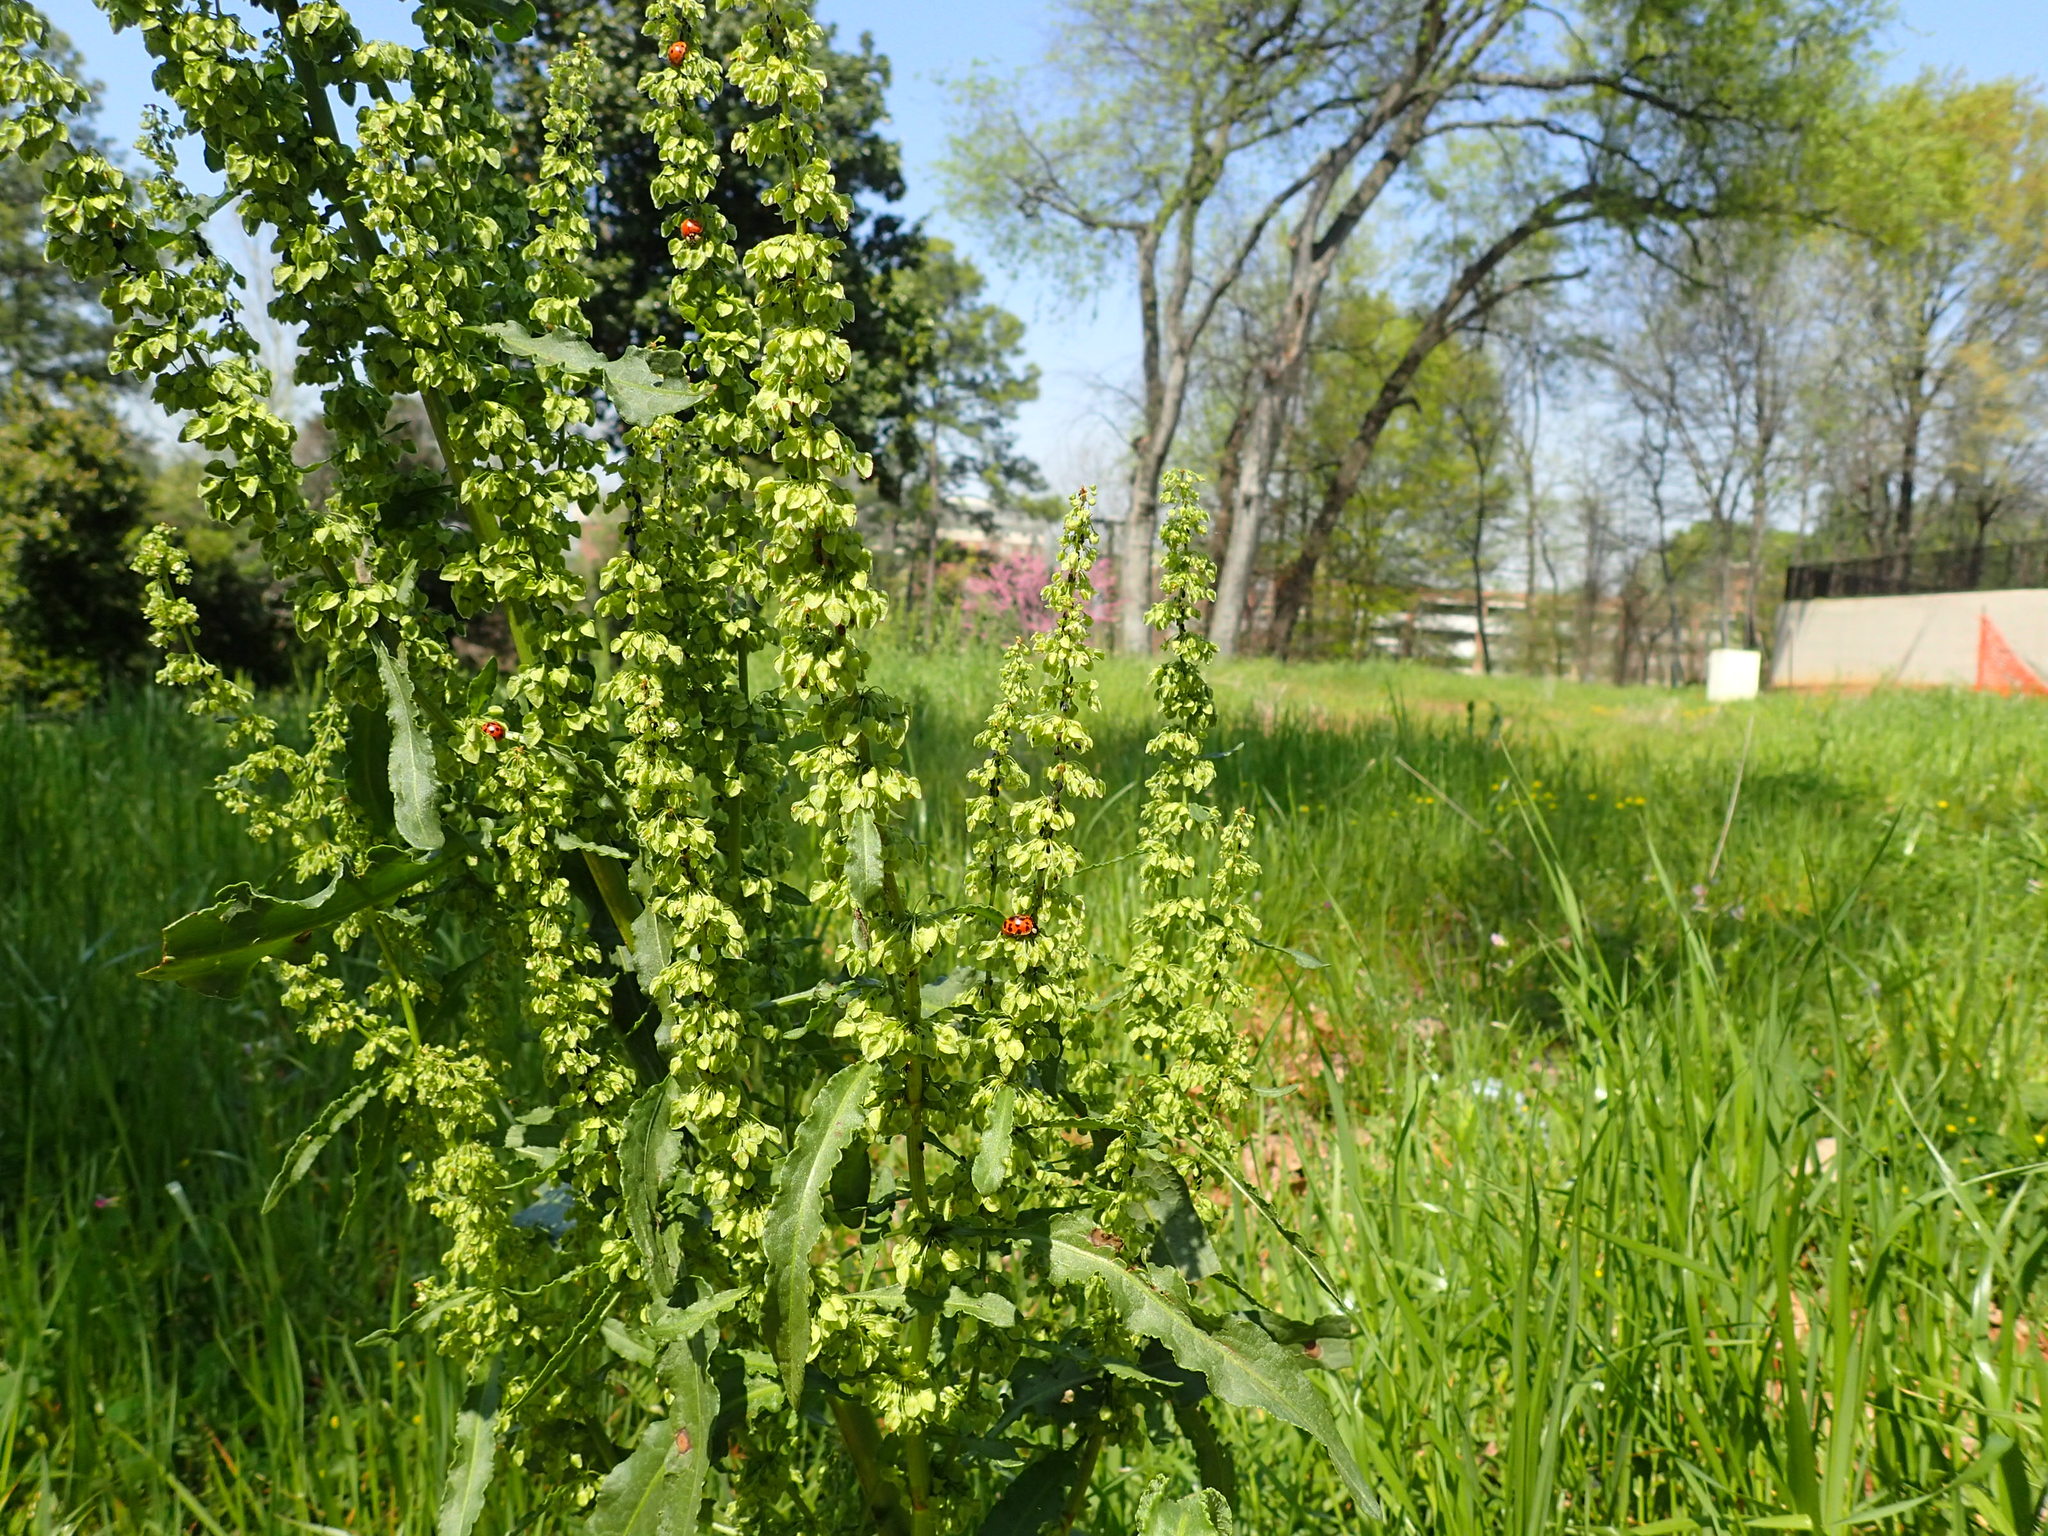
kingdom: Animalia
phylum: Arthropoda
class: Insecta
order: Coleoptera
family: Coccinellidae
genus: Harmonia
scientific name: Harmonia axyridis
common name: Harlequin ladybird
